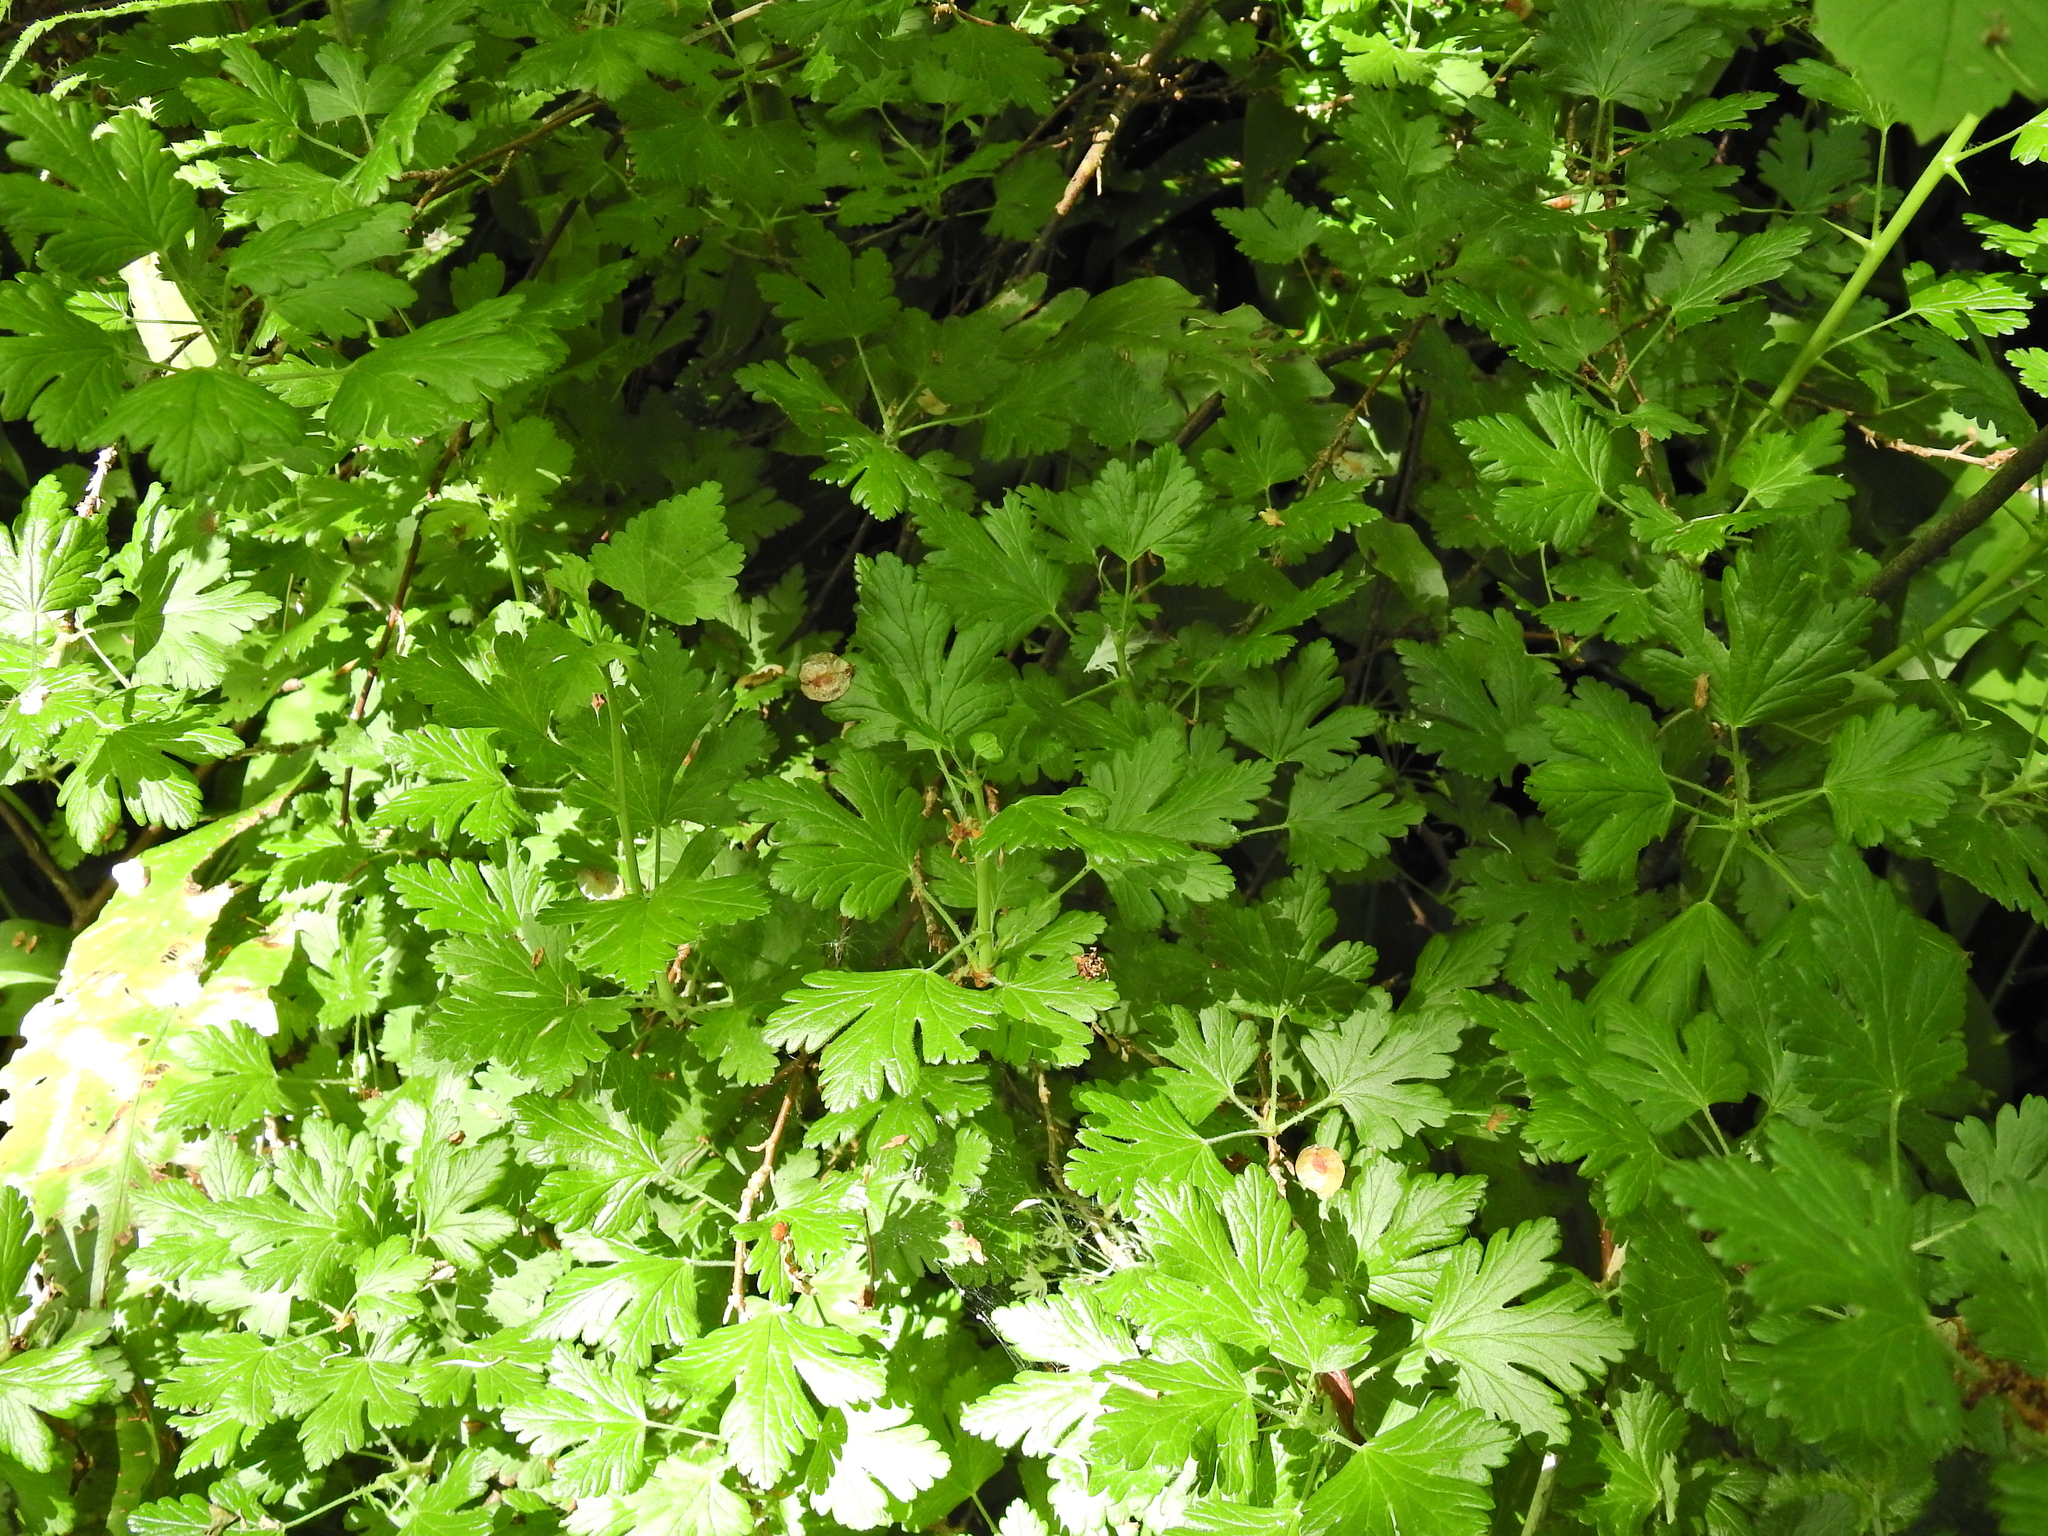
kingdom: Plantae
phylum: Tracheophyta
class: Magnoliopsida
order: Saxifragales
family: Grossulariaceae
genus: Ribes
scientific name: Ribes uva-crispa
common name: Gooseberry
